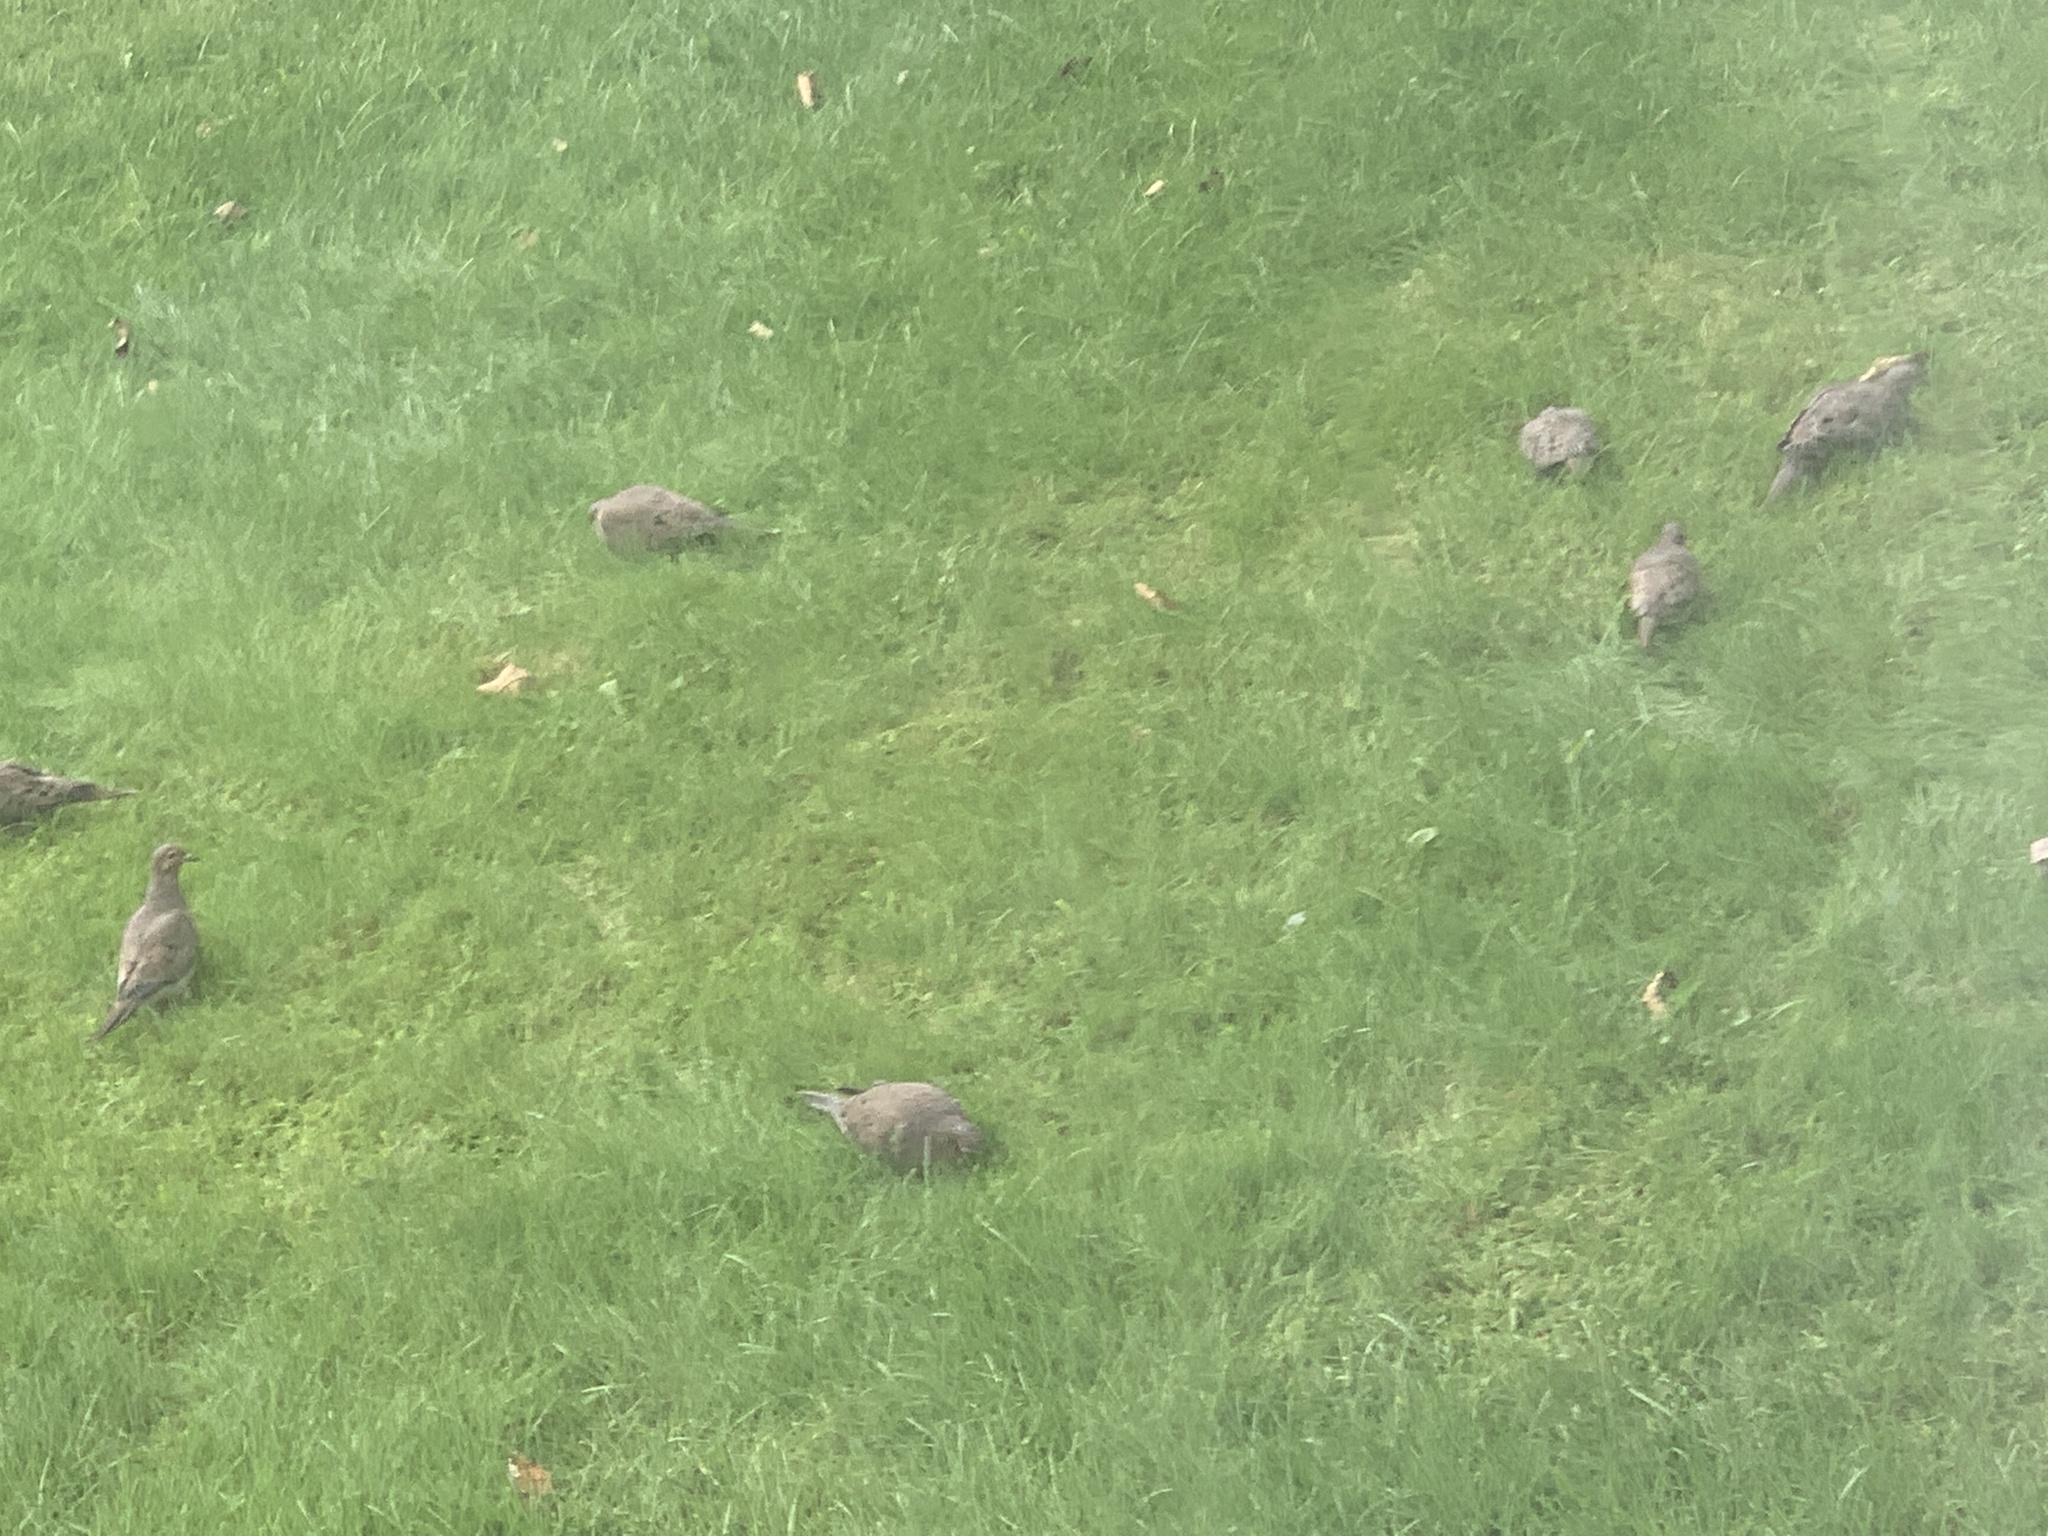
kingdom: Animalia
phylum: Chordata
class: Aves
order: Columbiformes
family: Columbidae
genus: Zenaida
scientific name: Zenaida macroura
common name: Mourning dove
